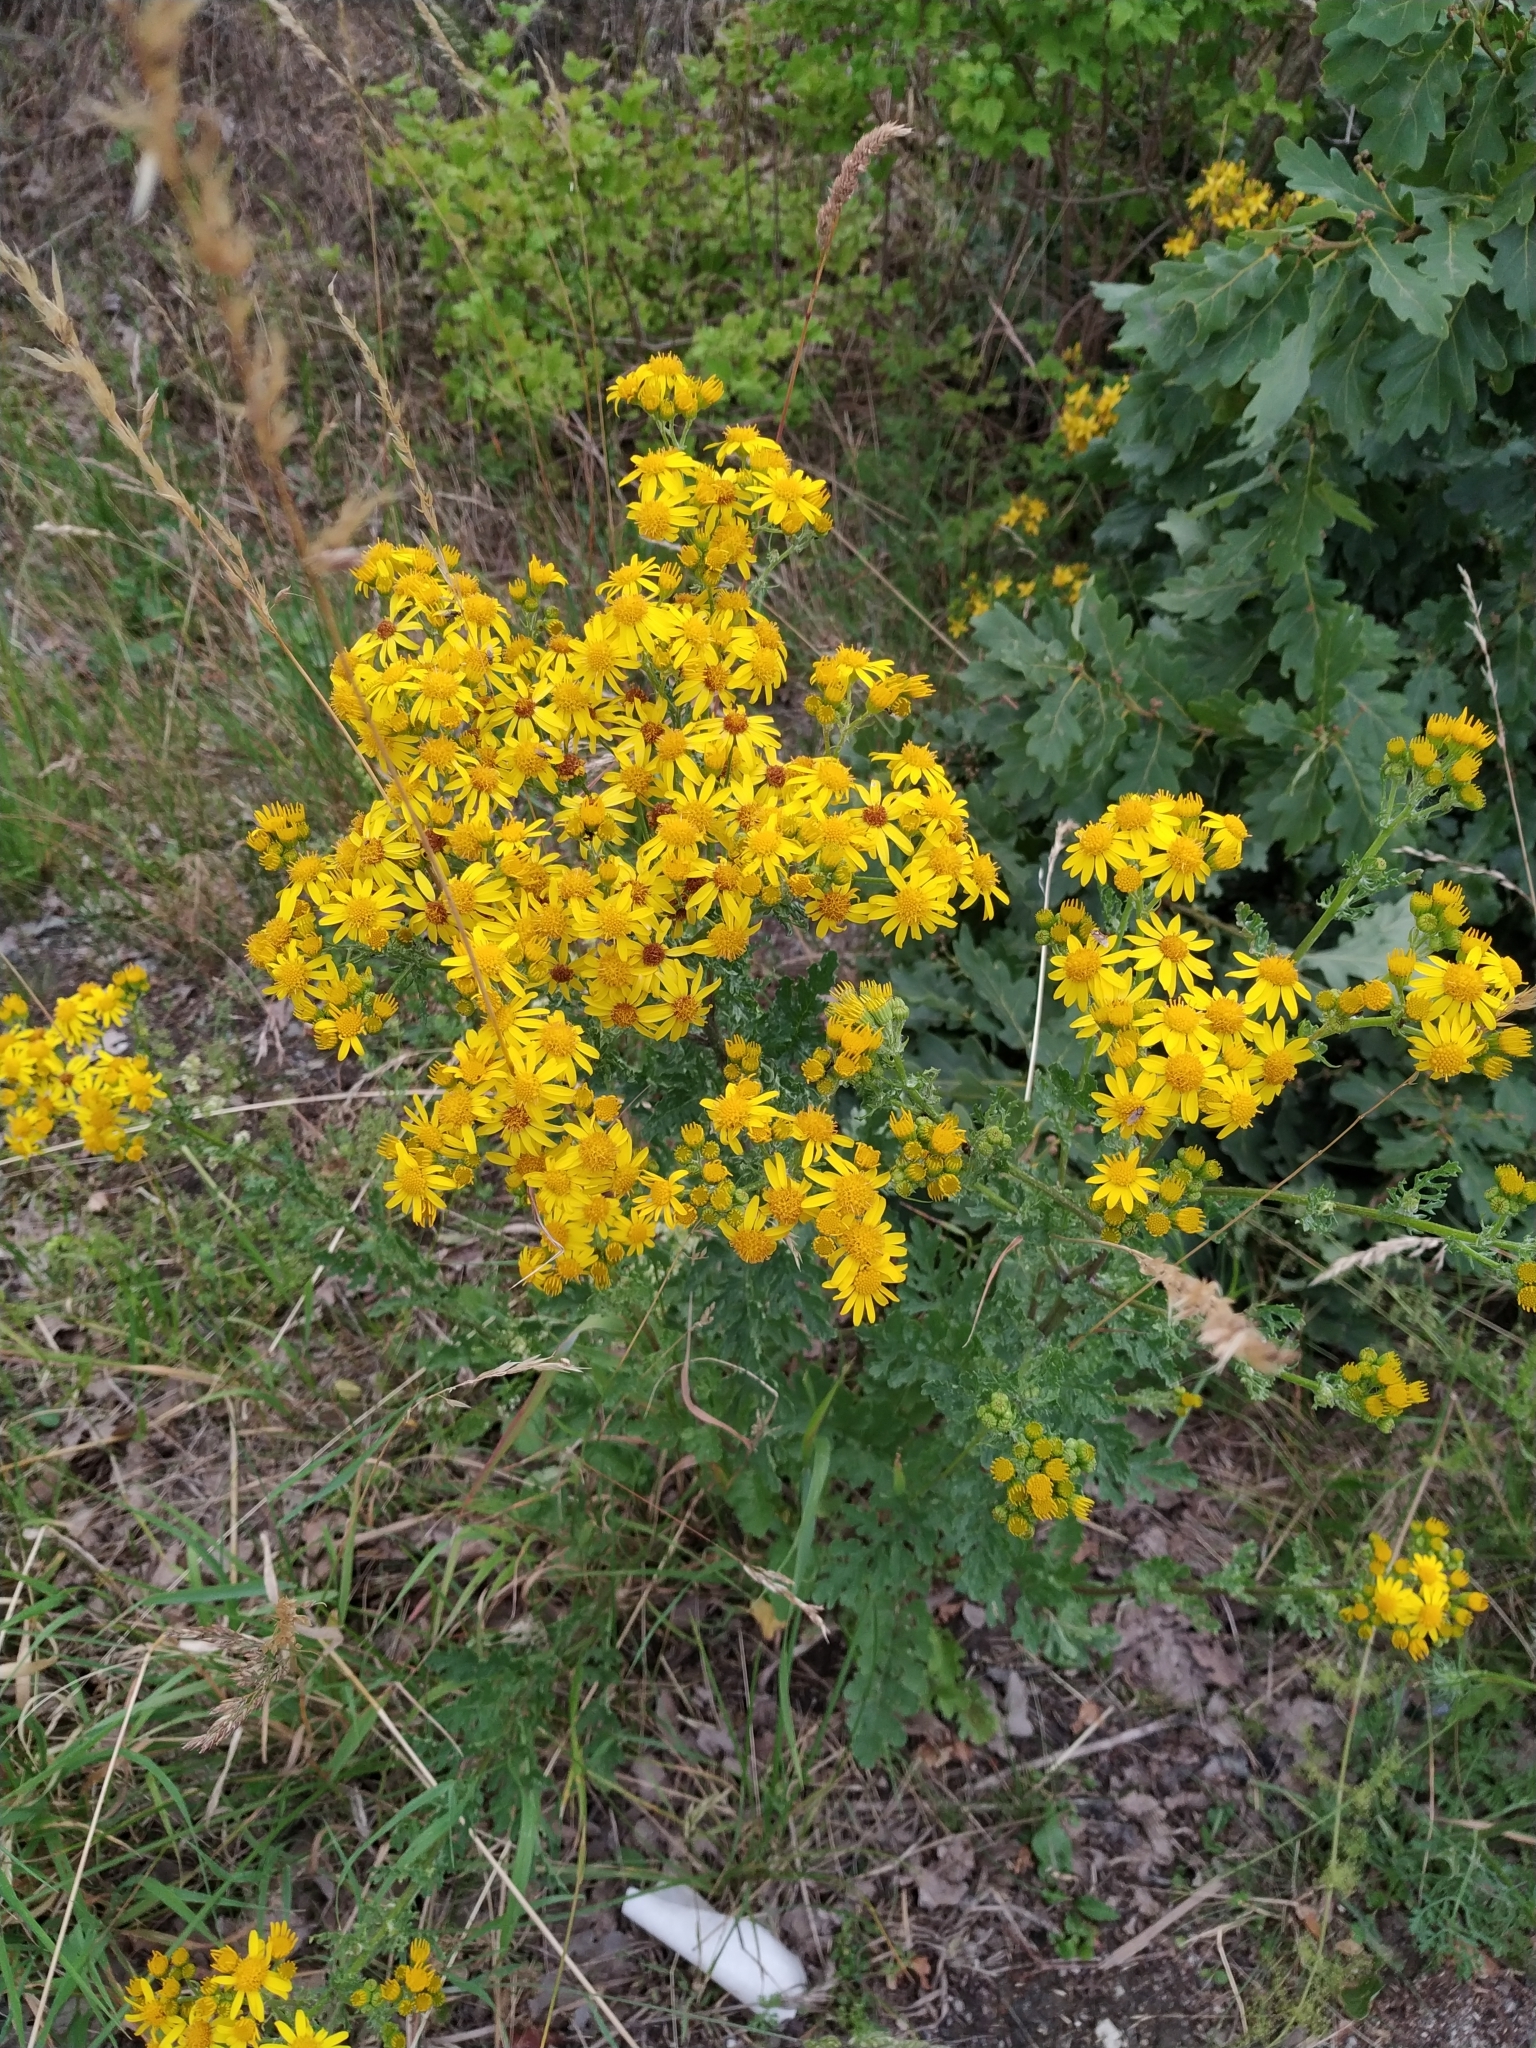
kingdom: Plantae
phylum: Tracheophyta
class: Magnoliopsida
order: Asterales
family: Asteraceae
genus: Jacobaea
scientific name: Jacobaea vulgaris
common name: Stinking willie
